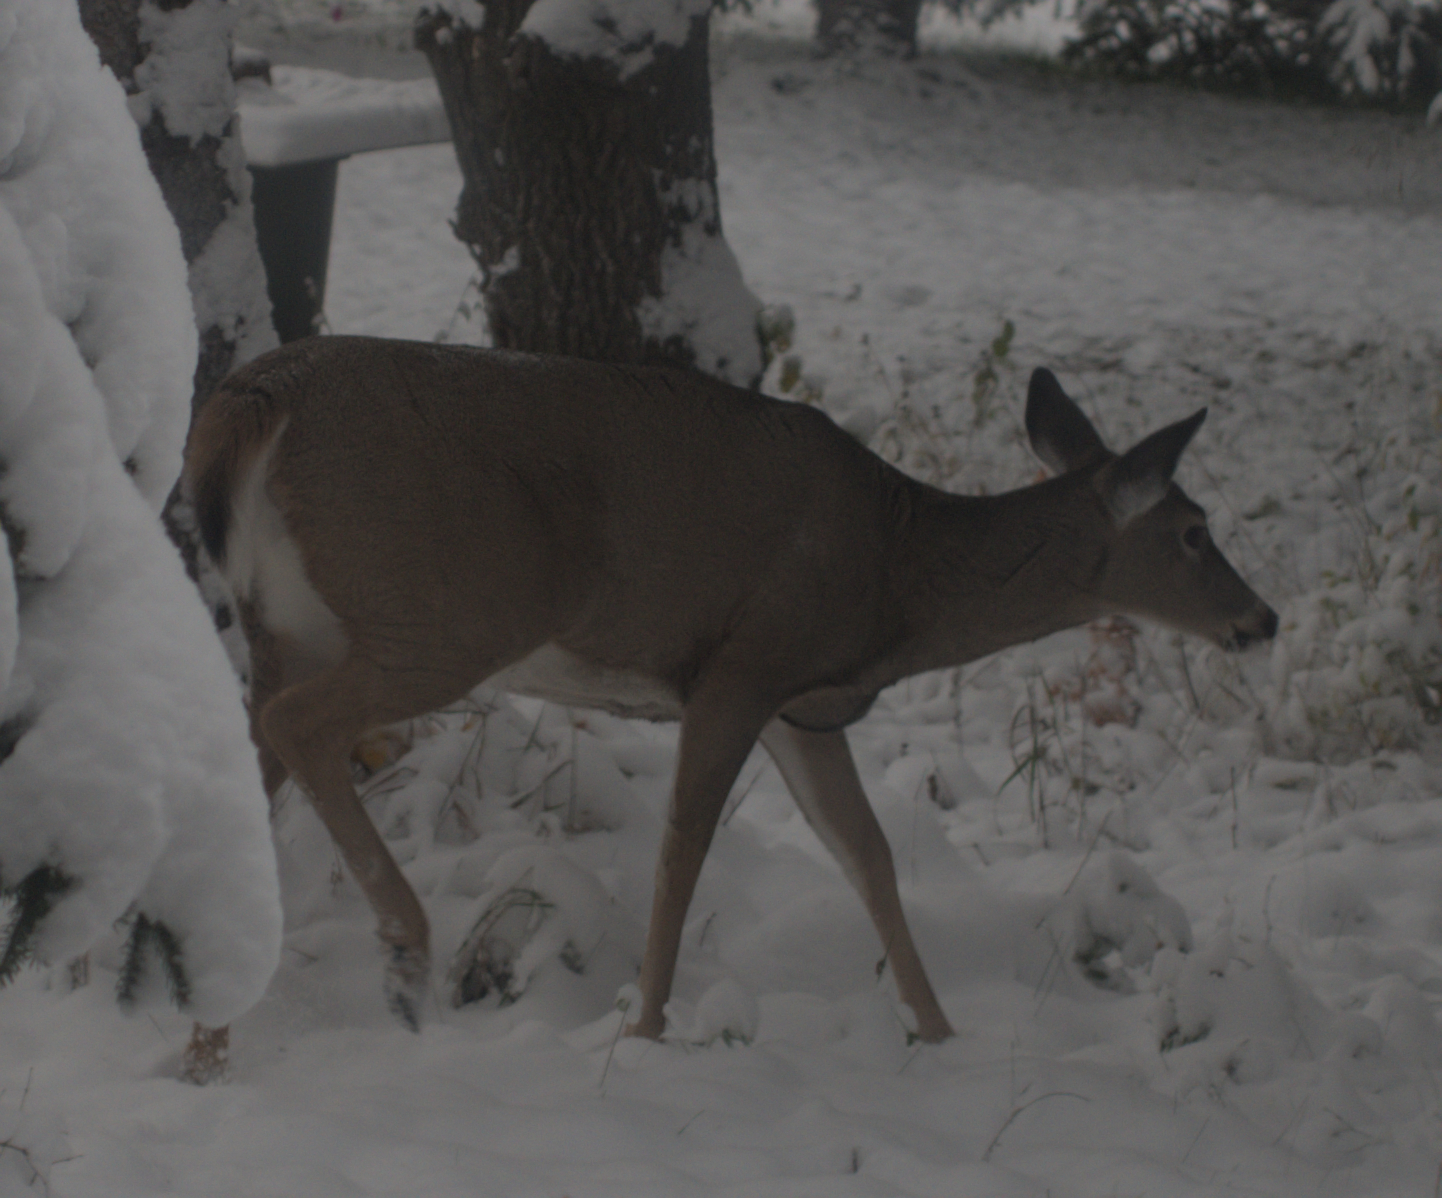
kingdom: Animalia
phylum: Chordata
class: Mammalia
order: Artiodactyla
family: Cervidae
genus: Odocoileus
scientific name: Odocoileus virginianus
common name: White-tailed deer
